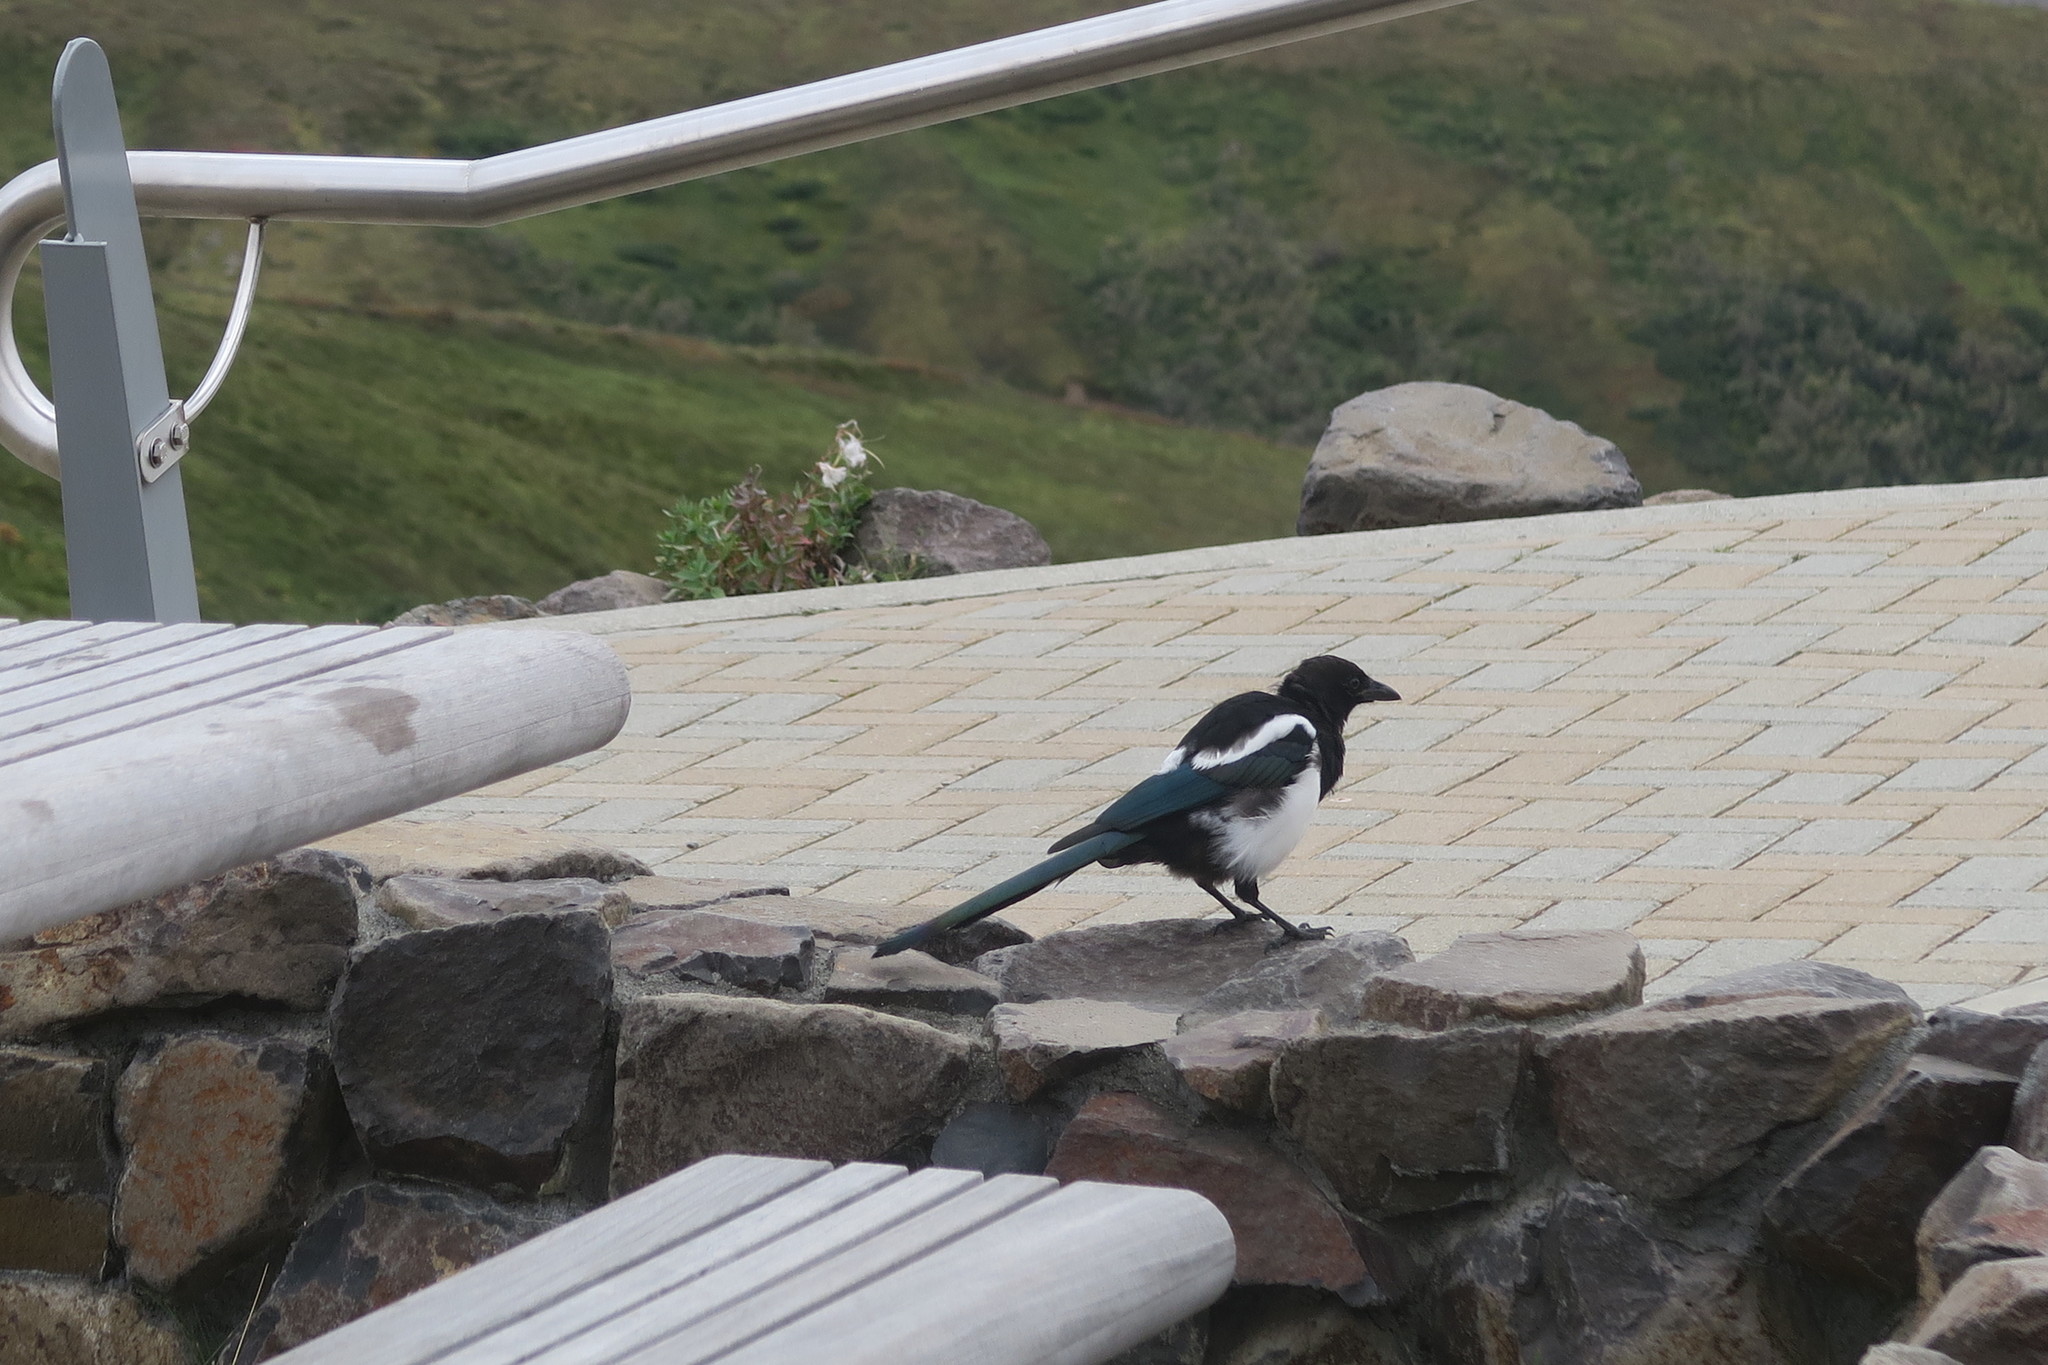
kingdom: Animalia
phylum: Chordata
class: Aves
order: Passeriformes
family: Corvidae
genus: Pica
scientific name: Pica hudsonia
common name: Black-billed magpie
